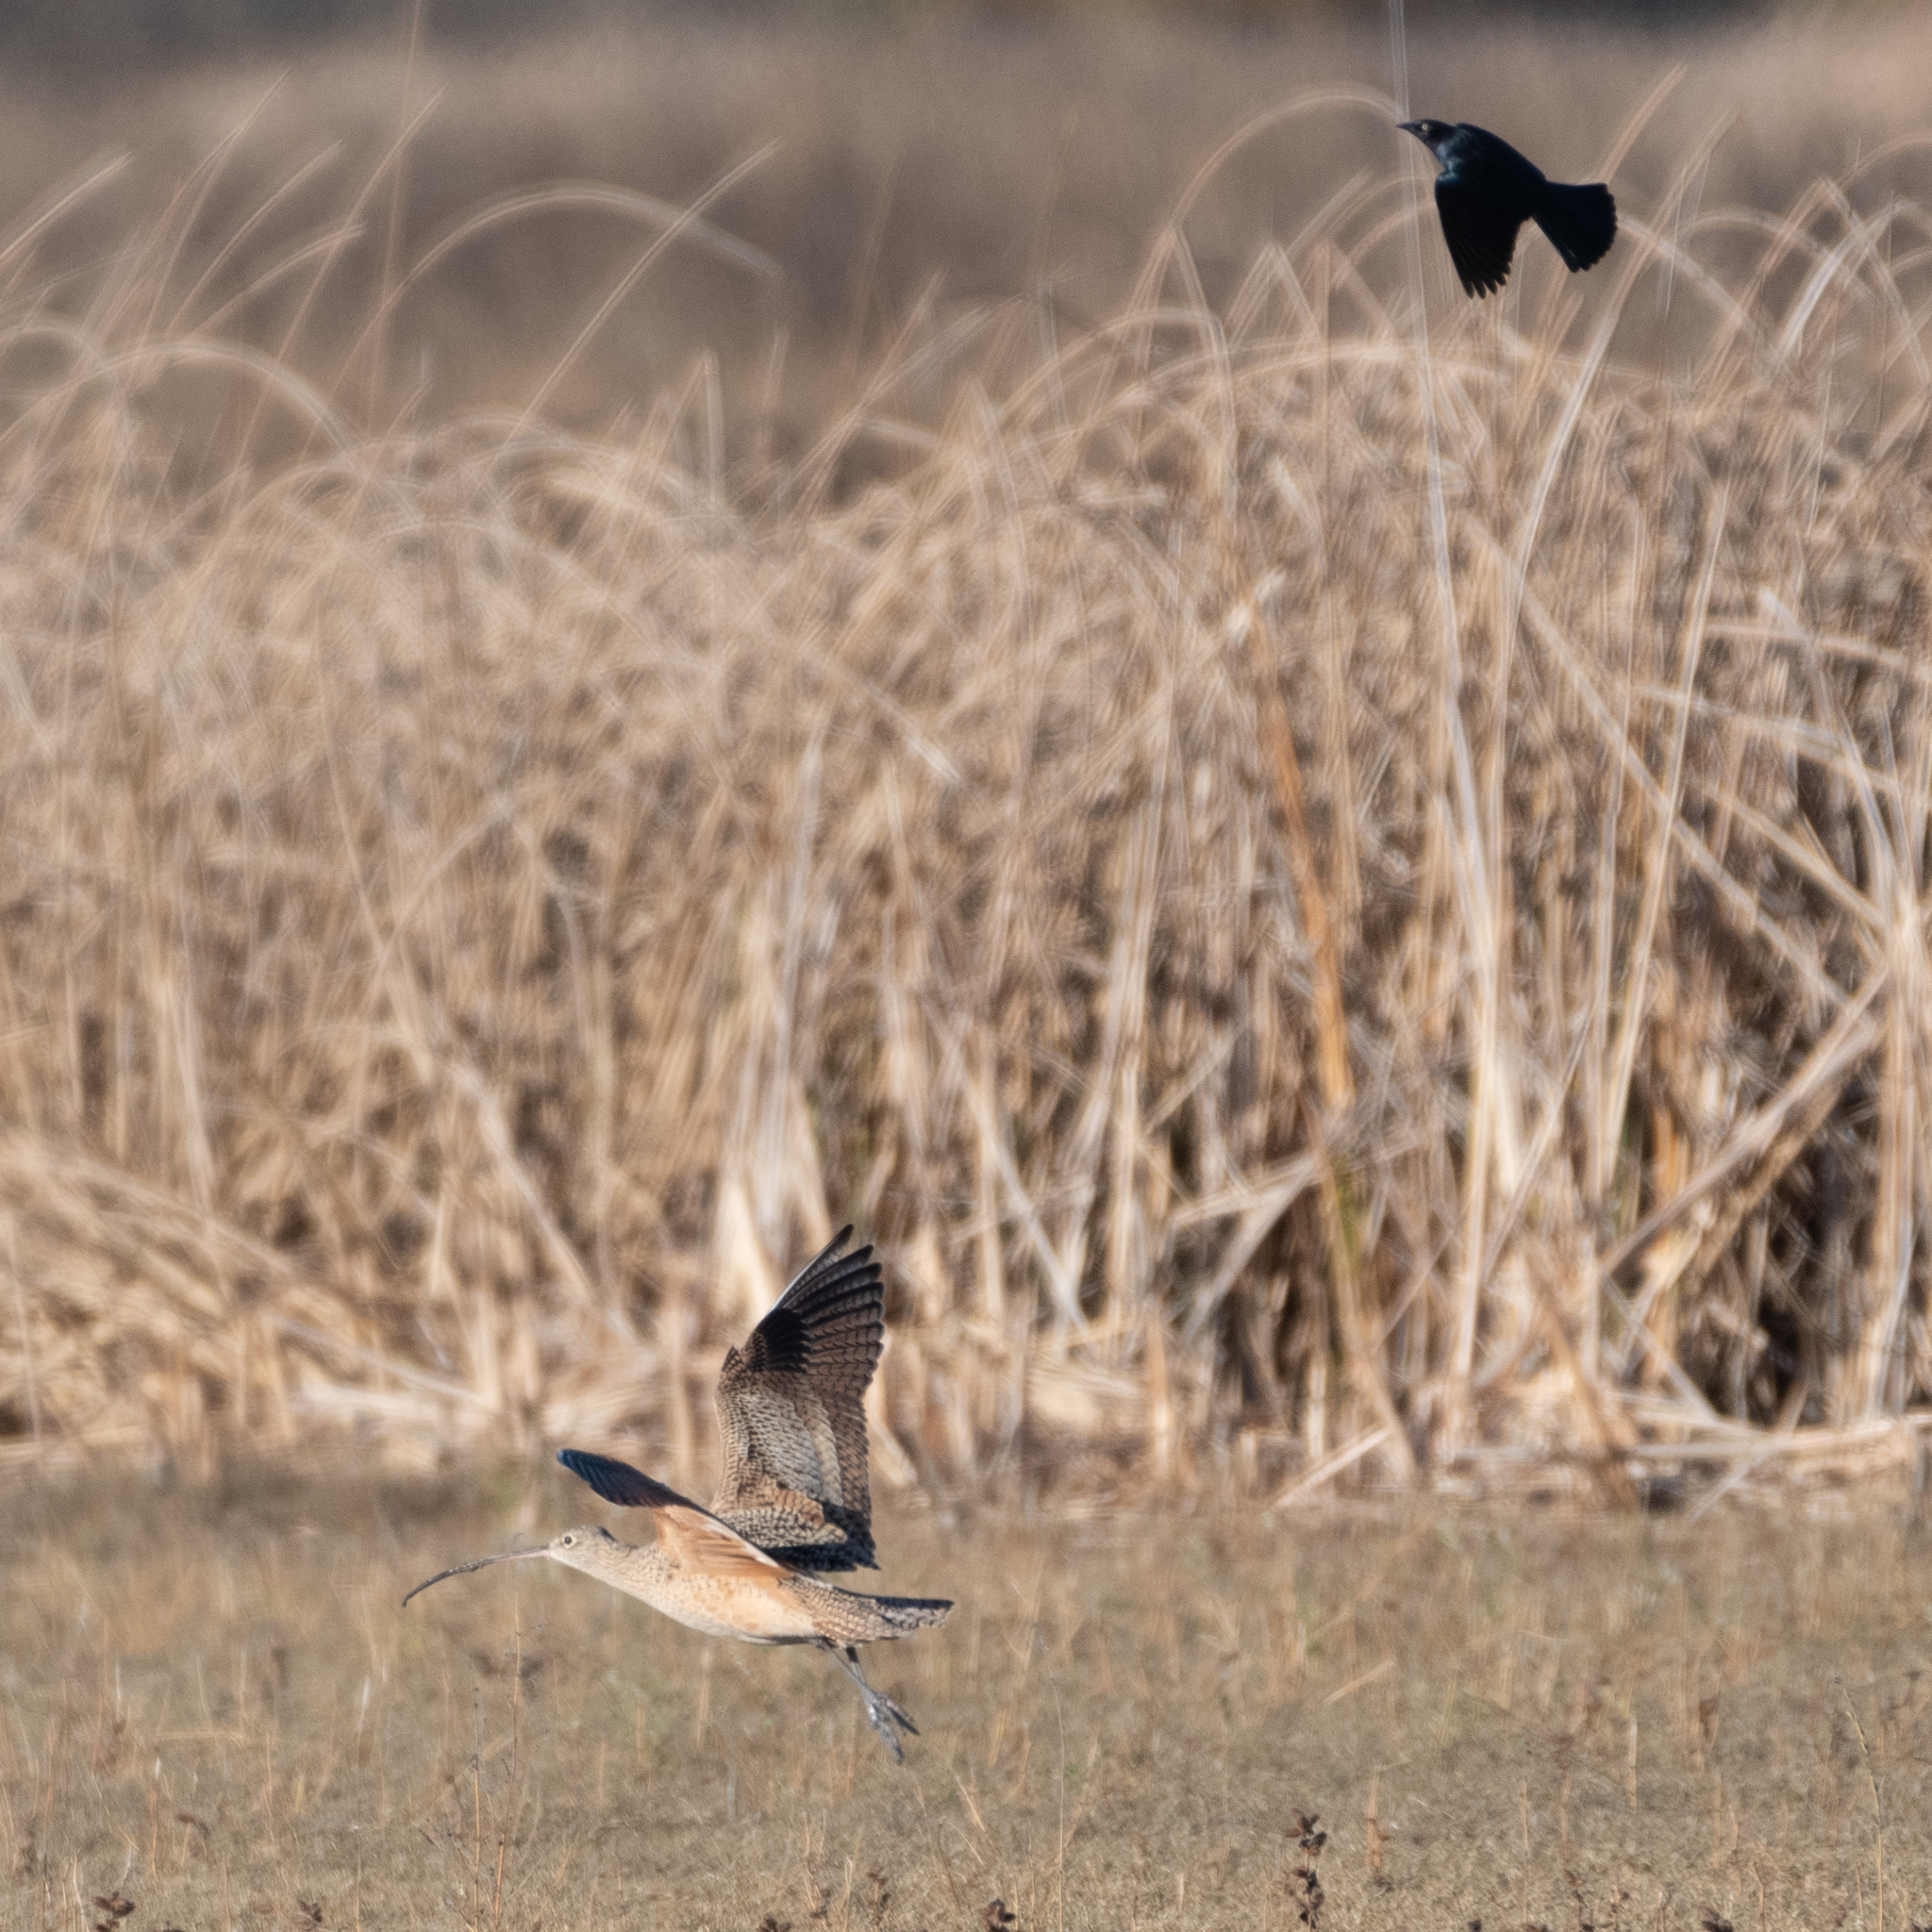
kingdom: Animalia
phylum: Chordata
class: Aves
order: Charadriiformes
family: Scolopacidae
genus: Numenius
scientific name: Numenius americanus
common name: Long-billed curlew
